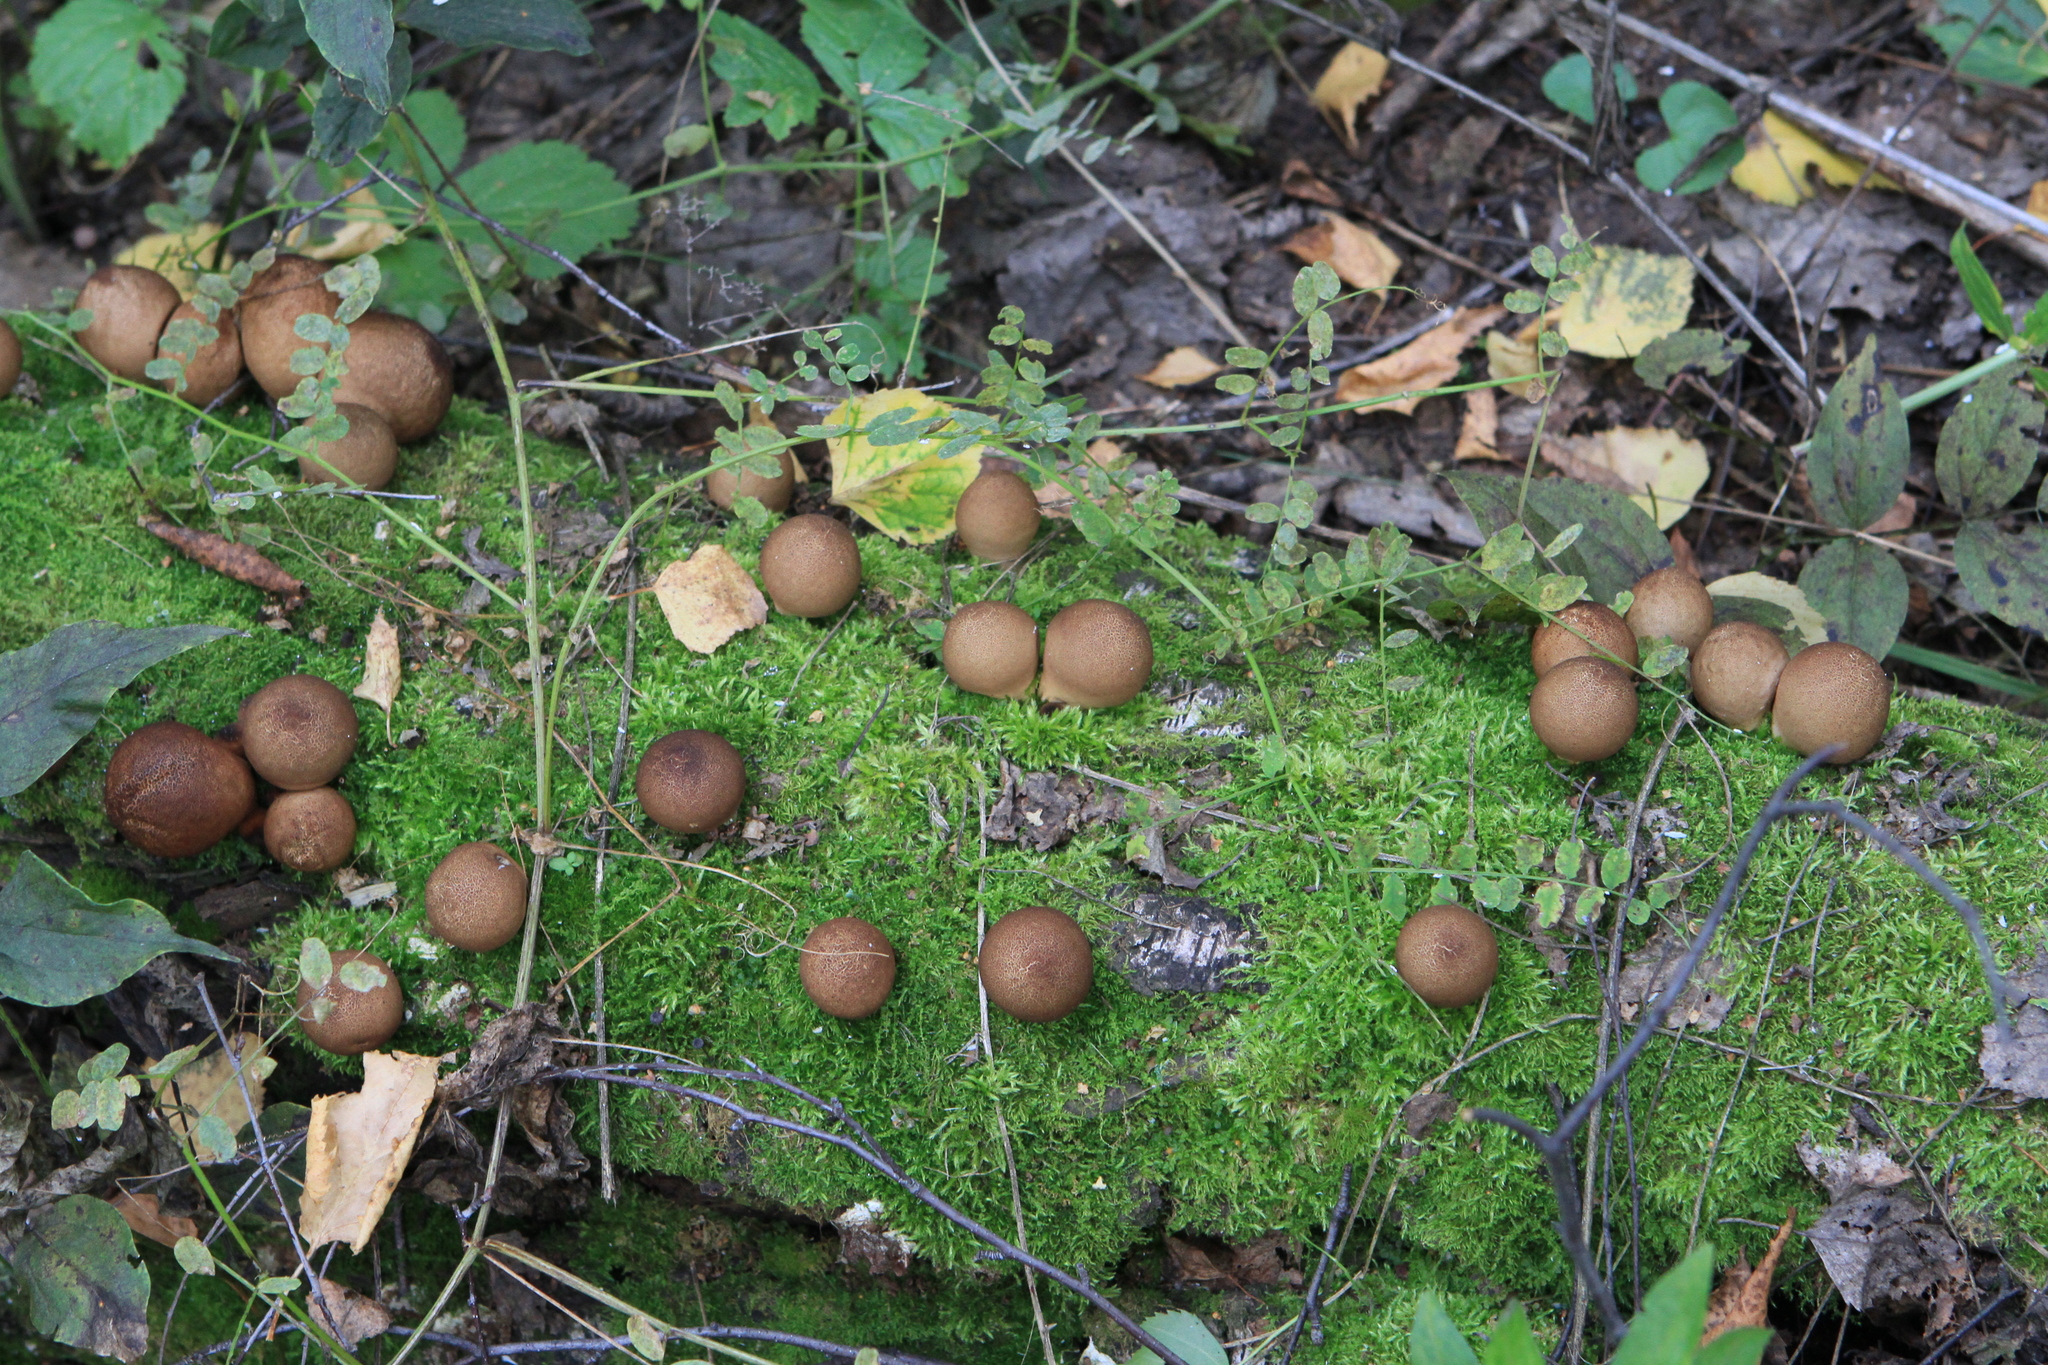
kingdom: Fungi
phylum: Basidiomycota
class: Agaricomycetes
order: Agaricales
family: Lycoperdaceae
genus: Apioperdon
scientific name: Apioperdon pyriforme
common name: Pear-shaped puffball
